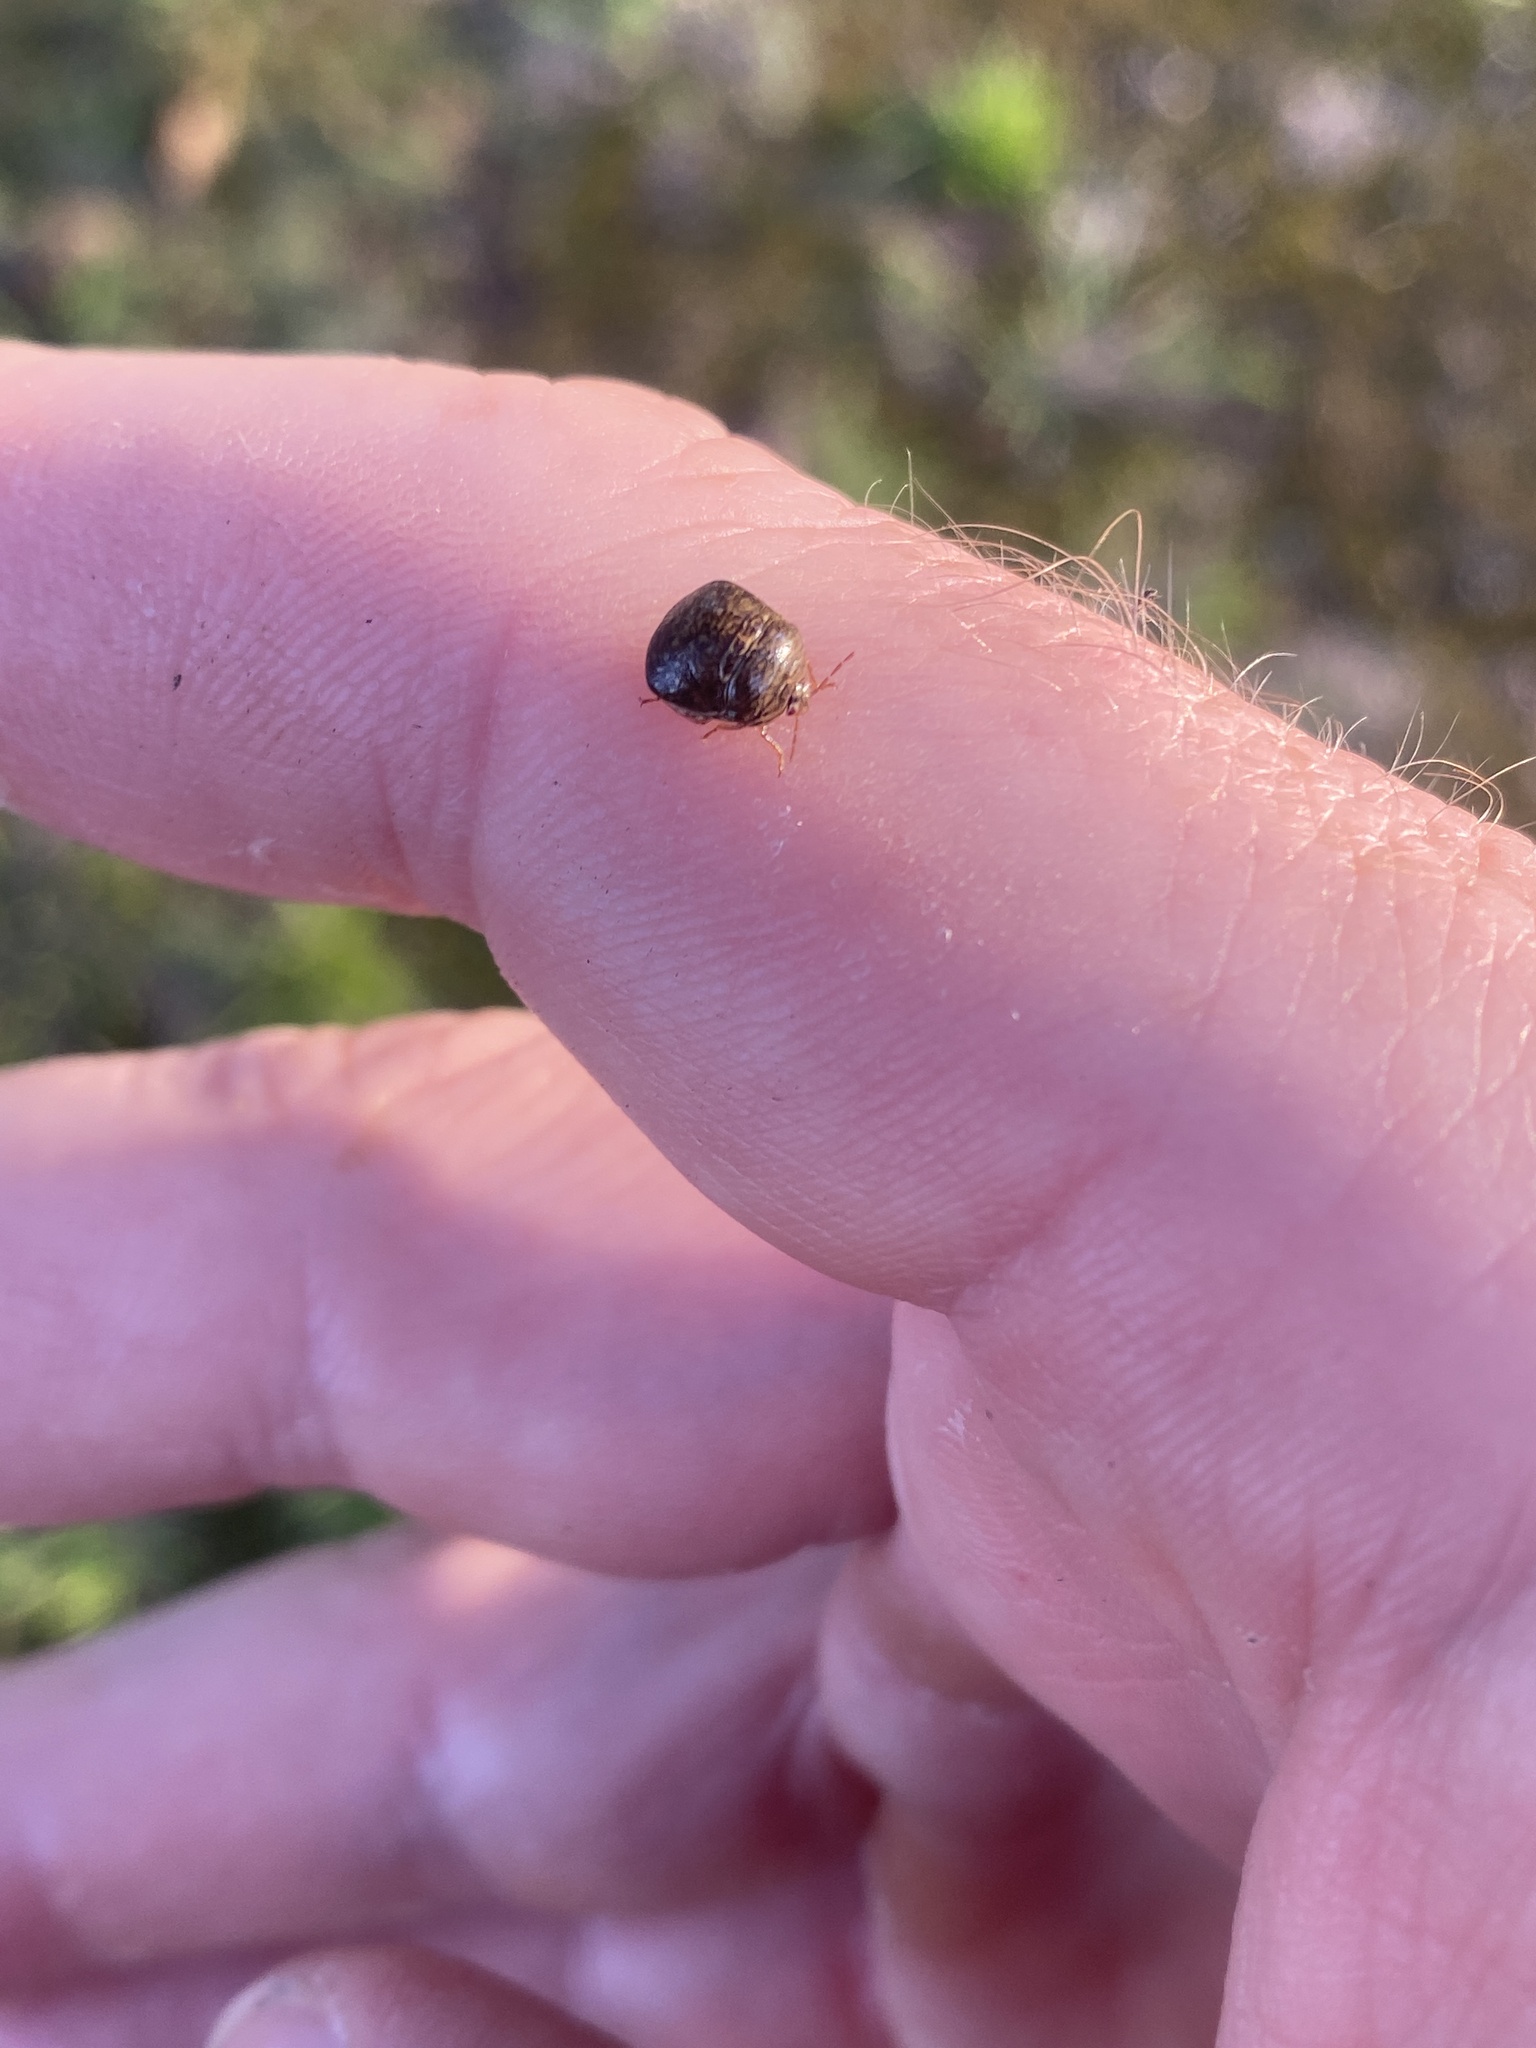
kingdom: Animalia
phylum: Arthropoda
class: Insecta
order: Hemiptera
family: Plataspidae
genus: Megacopta
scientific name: Megacopta cribraria
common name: Bean plataspid
